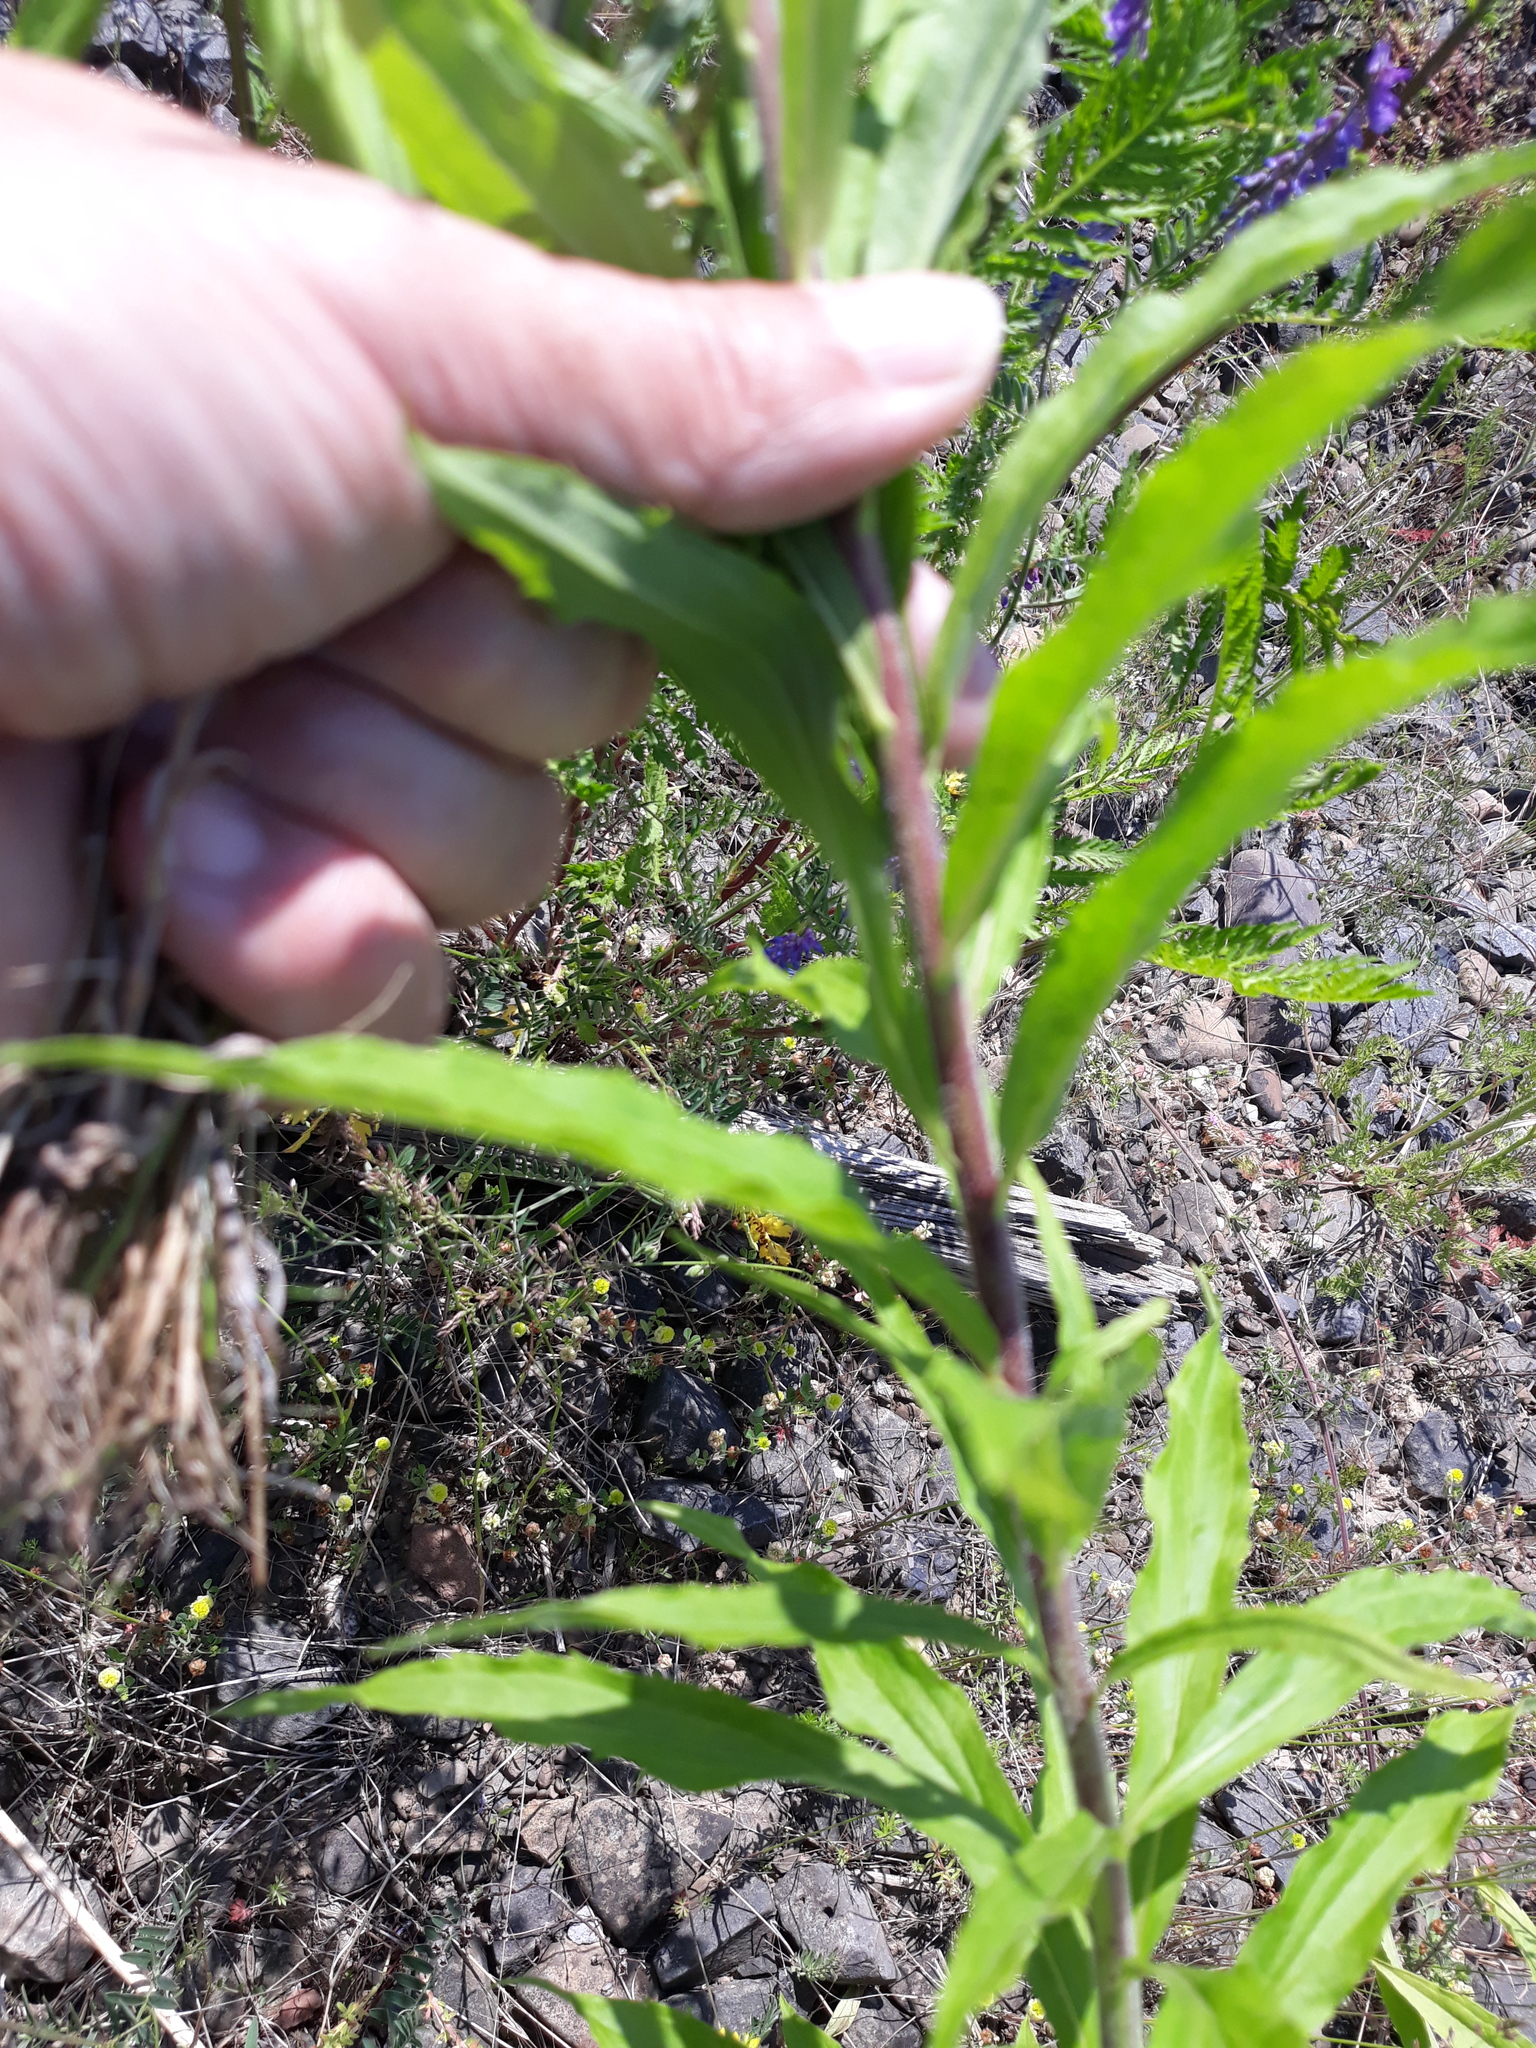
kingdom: Plantae
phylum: Tracheophyta
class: Magnoliopsida
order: Asterales
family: Asteraceae
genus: Solidago
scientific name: Solidago canadensis
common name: Canada goldenrod
